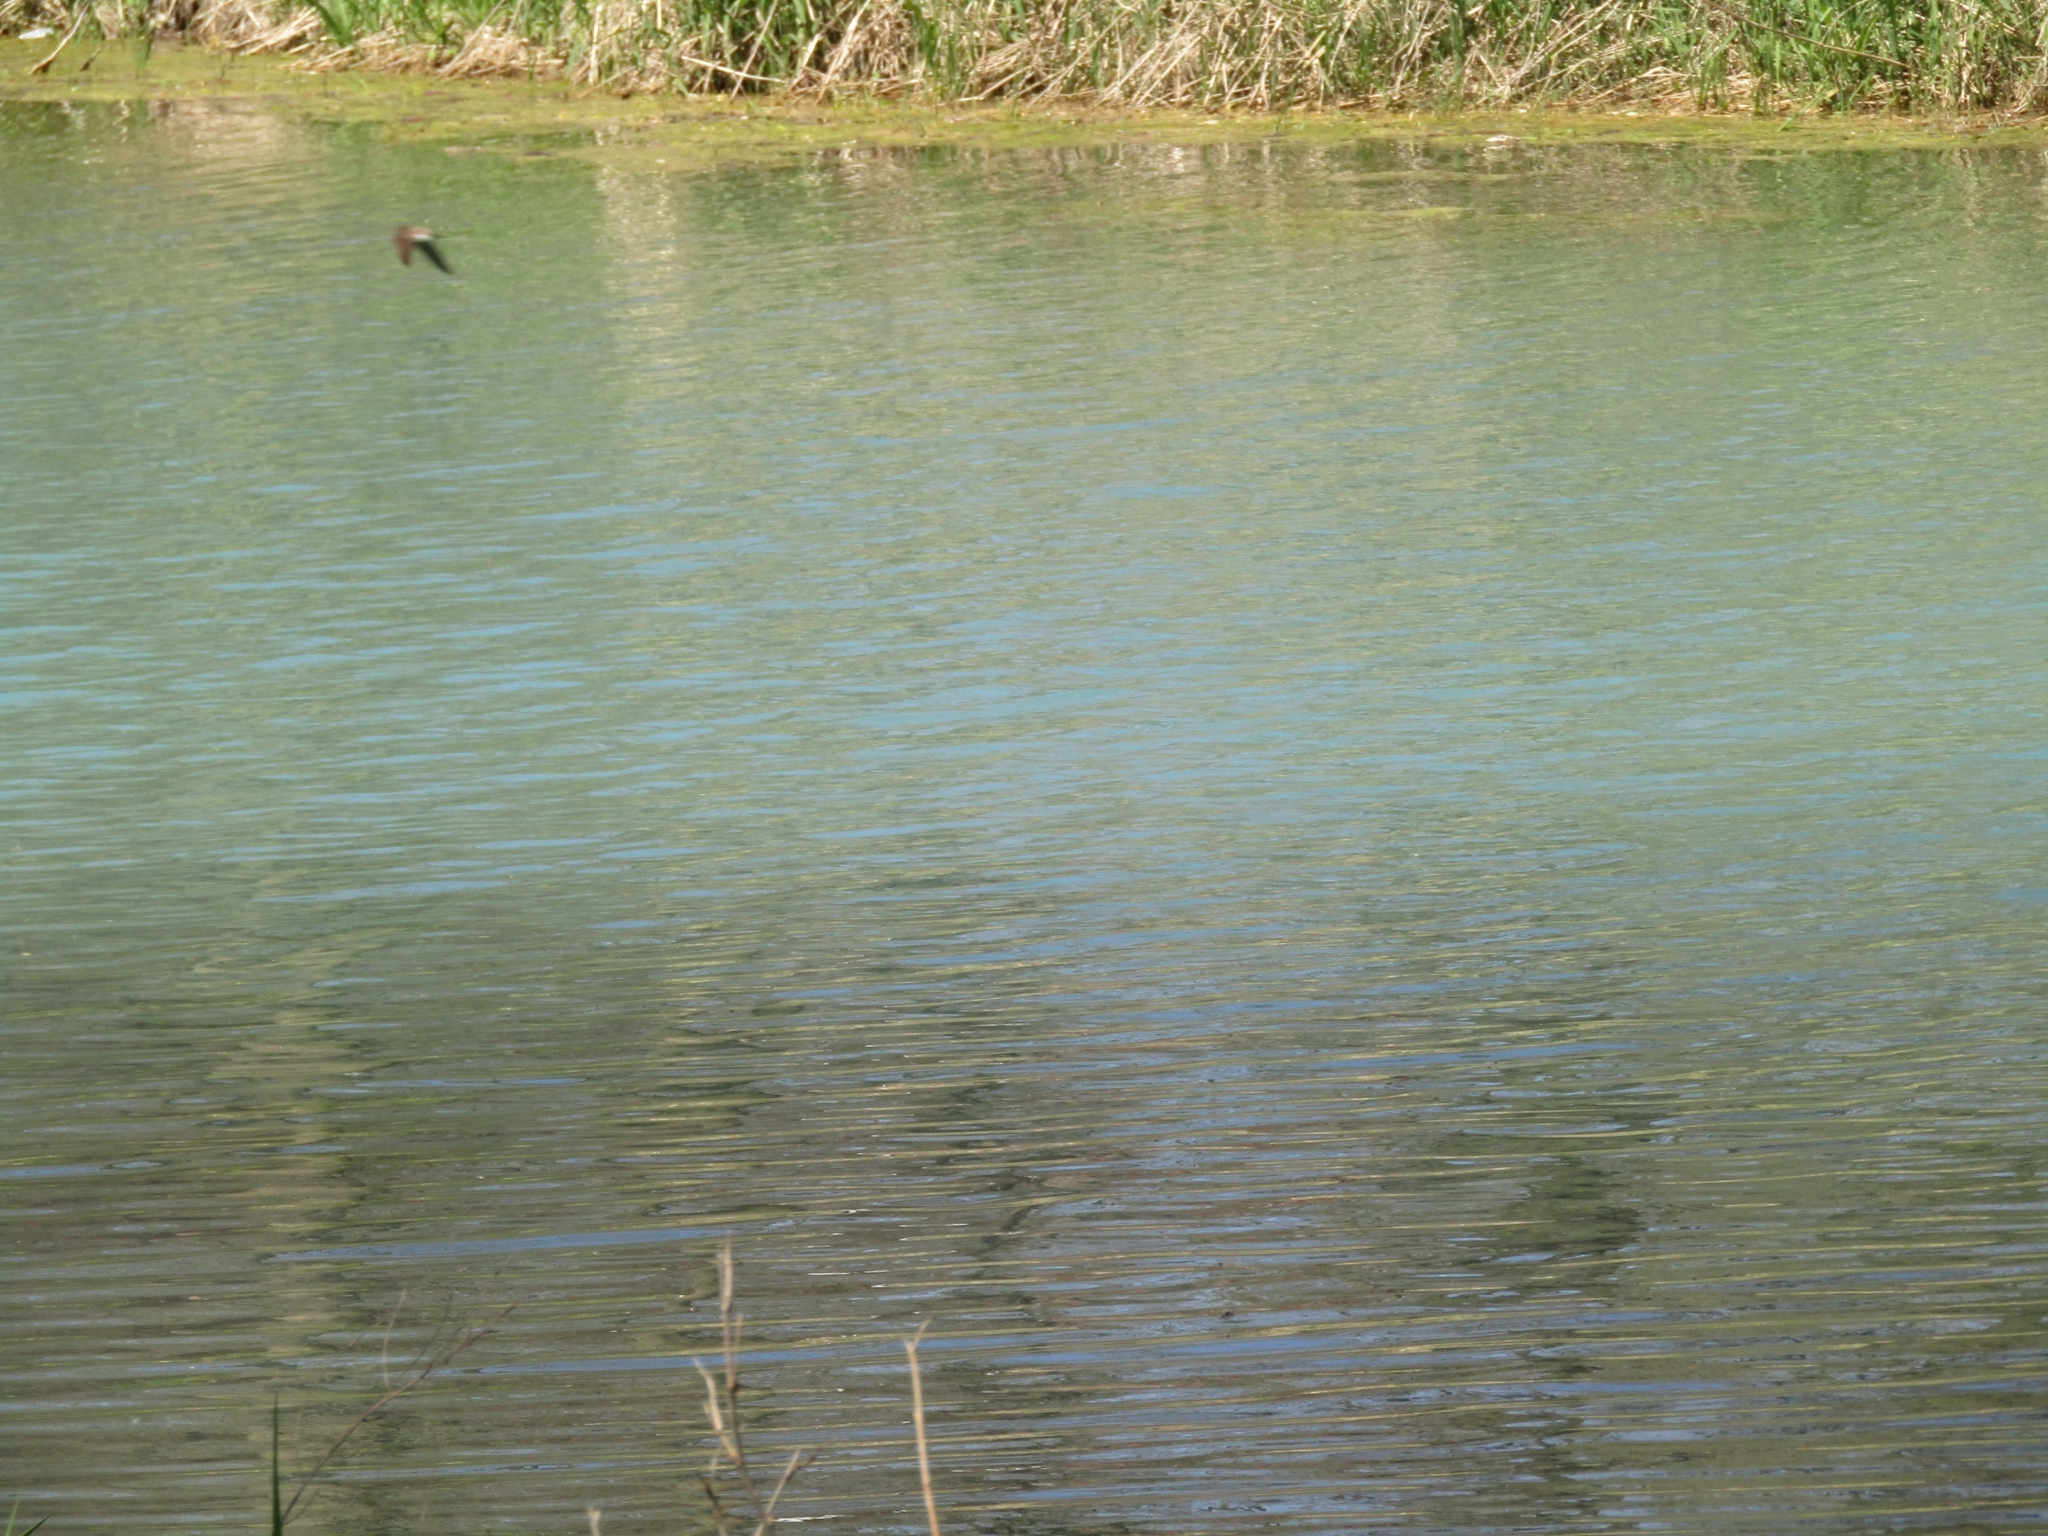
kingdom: Animalia
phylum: Chordata
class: Aves
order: Passeriformes
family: Hirundinidae
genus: Stelgidopteryx
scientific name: Stelgidopteryx serripennis
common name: Northern rough-winged swallow
